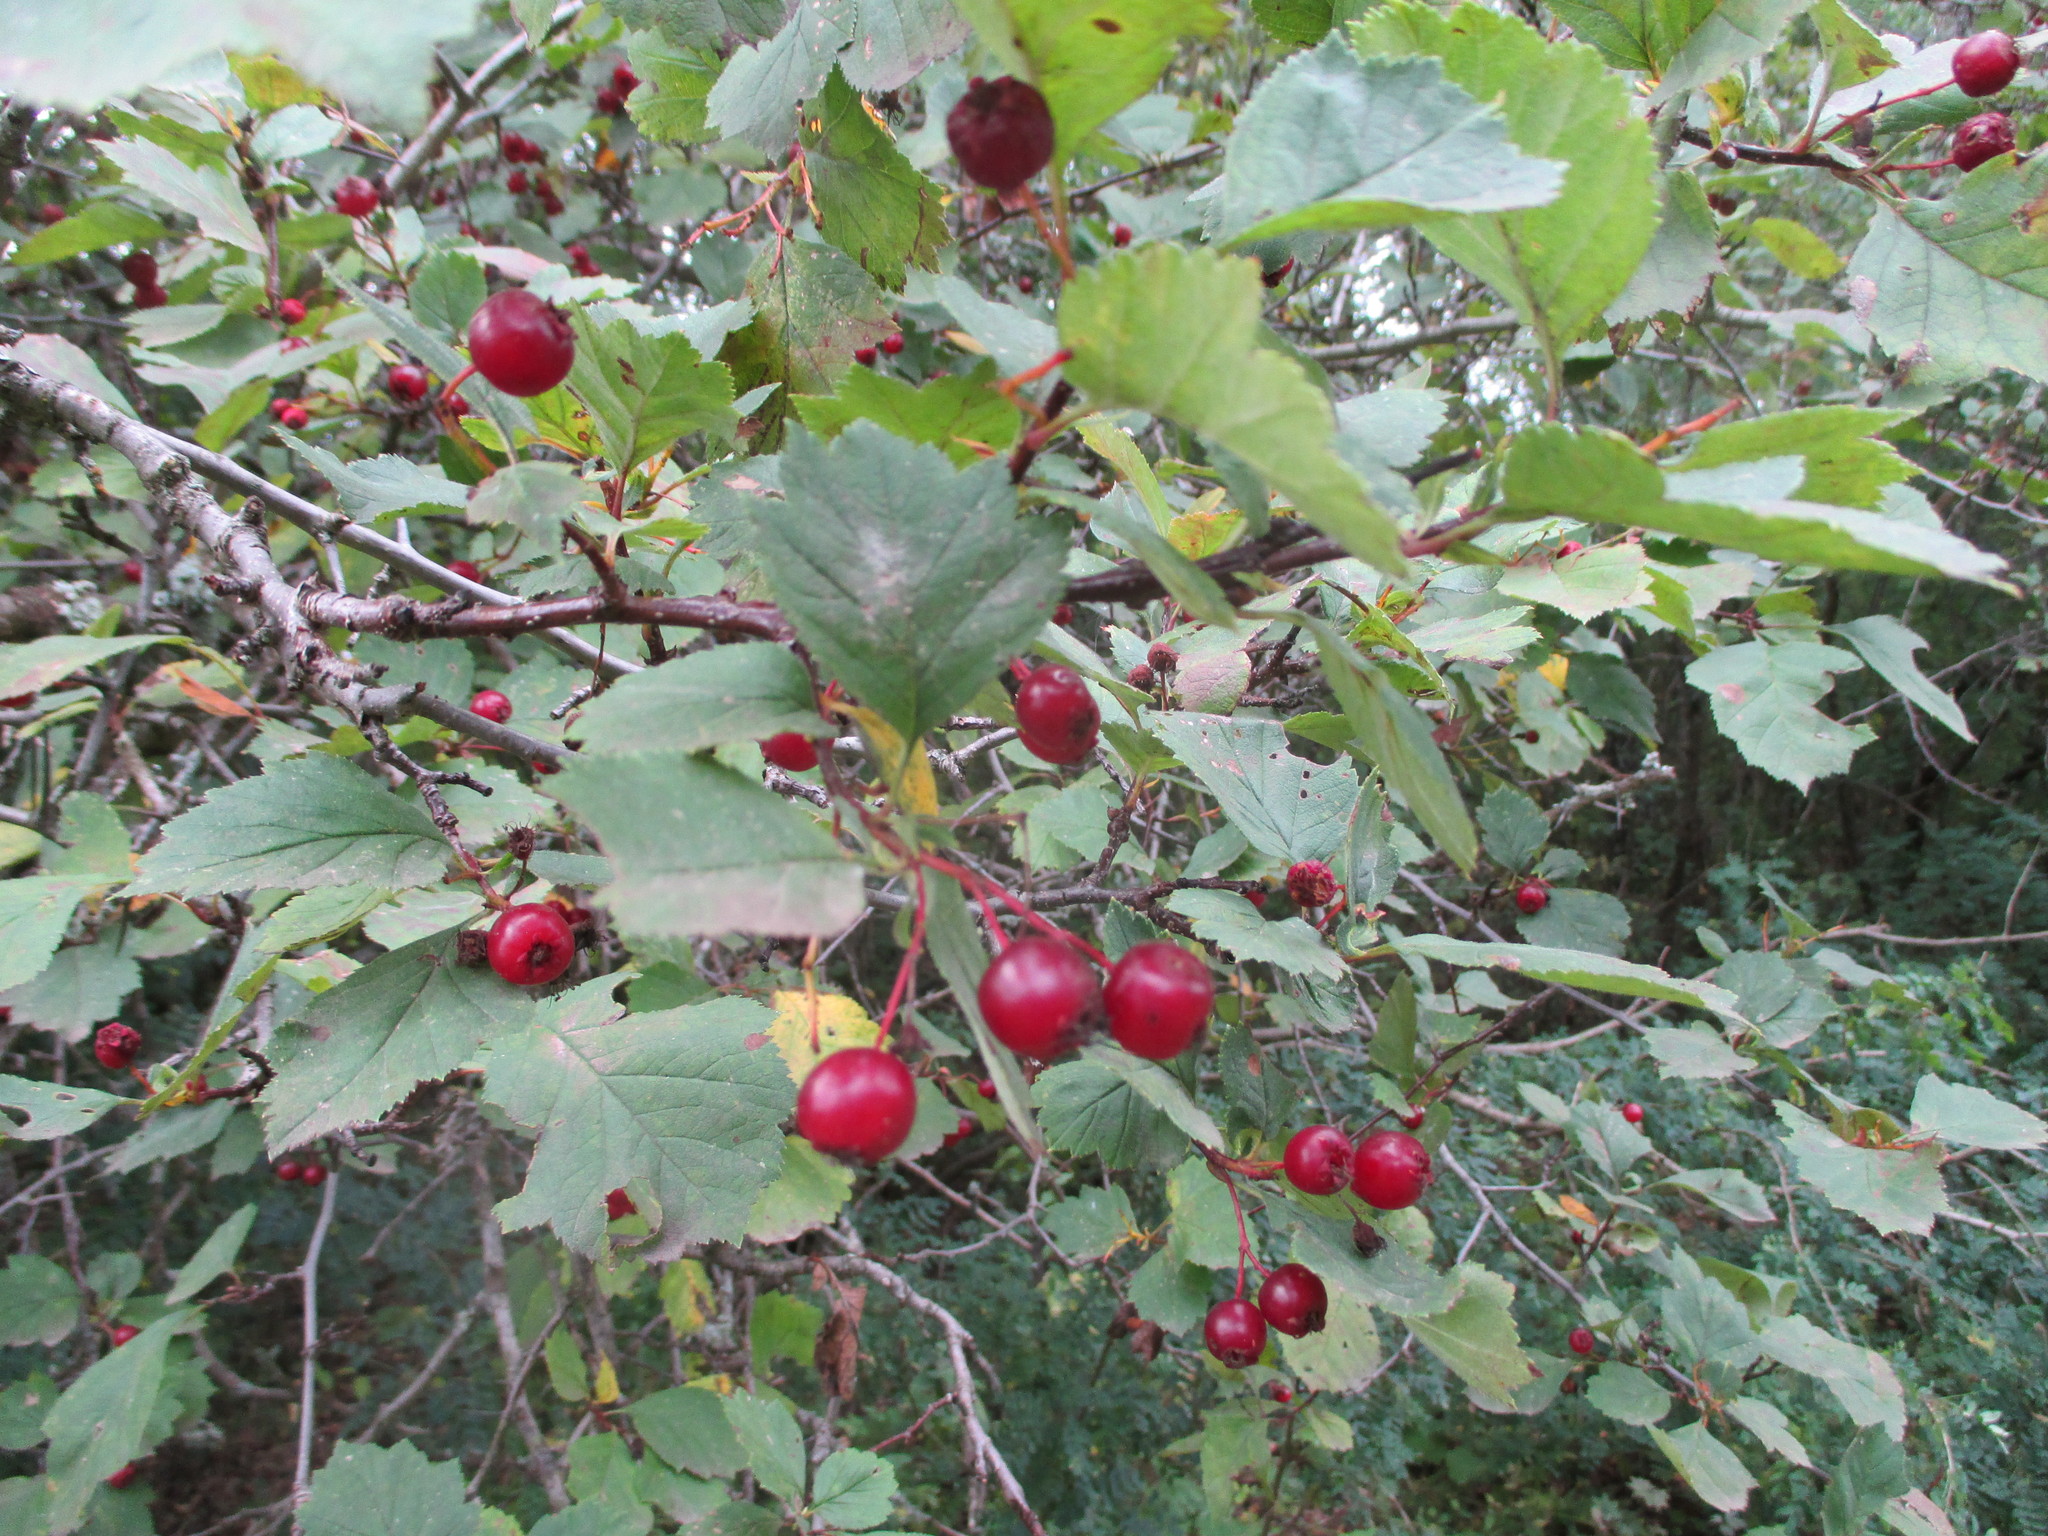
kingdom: Plantae
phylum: Tracheophyta
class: Magnoliopsida
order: Rosales
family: Rosaceae
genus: Crataegus
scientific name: Crataegus sanguinea
